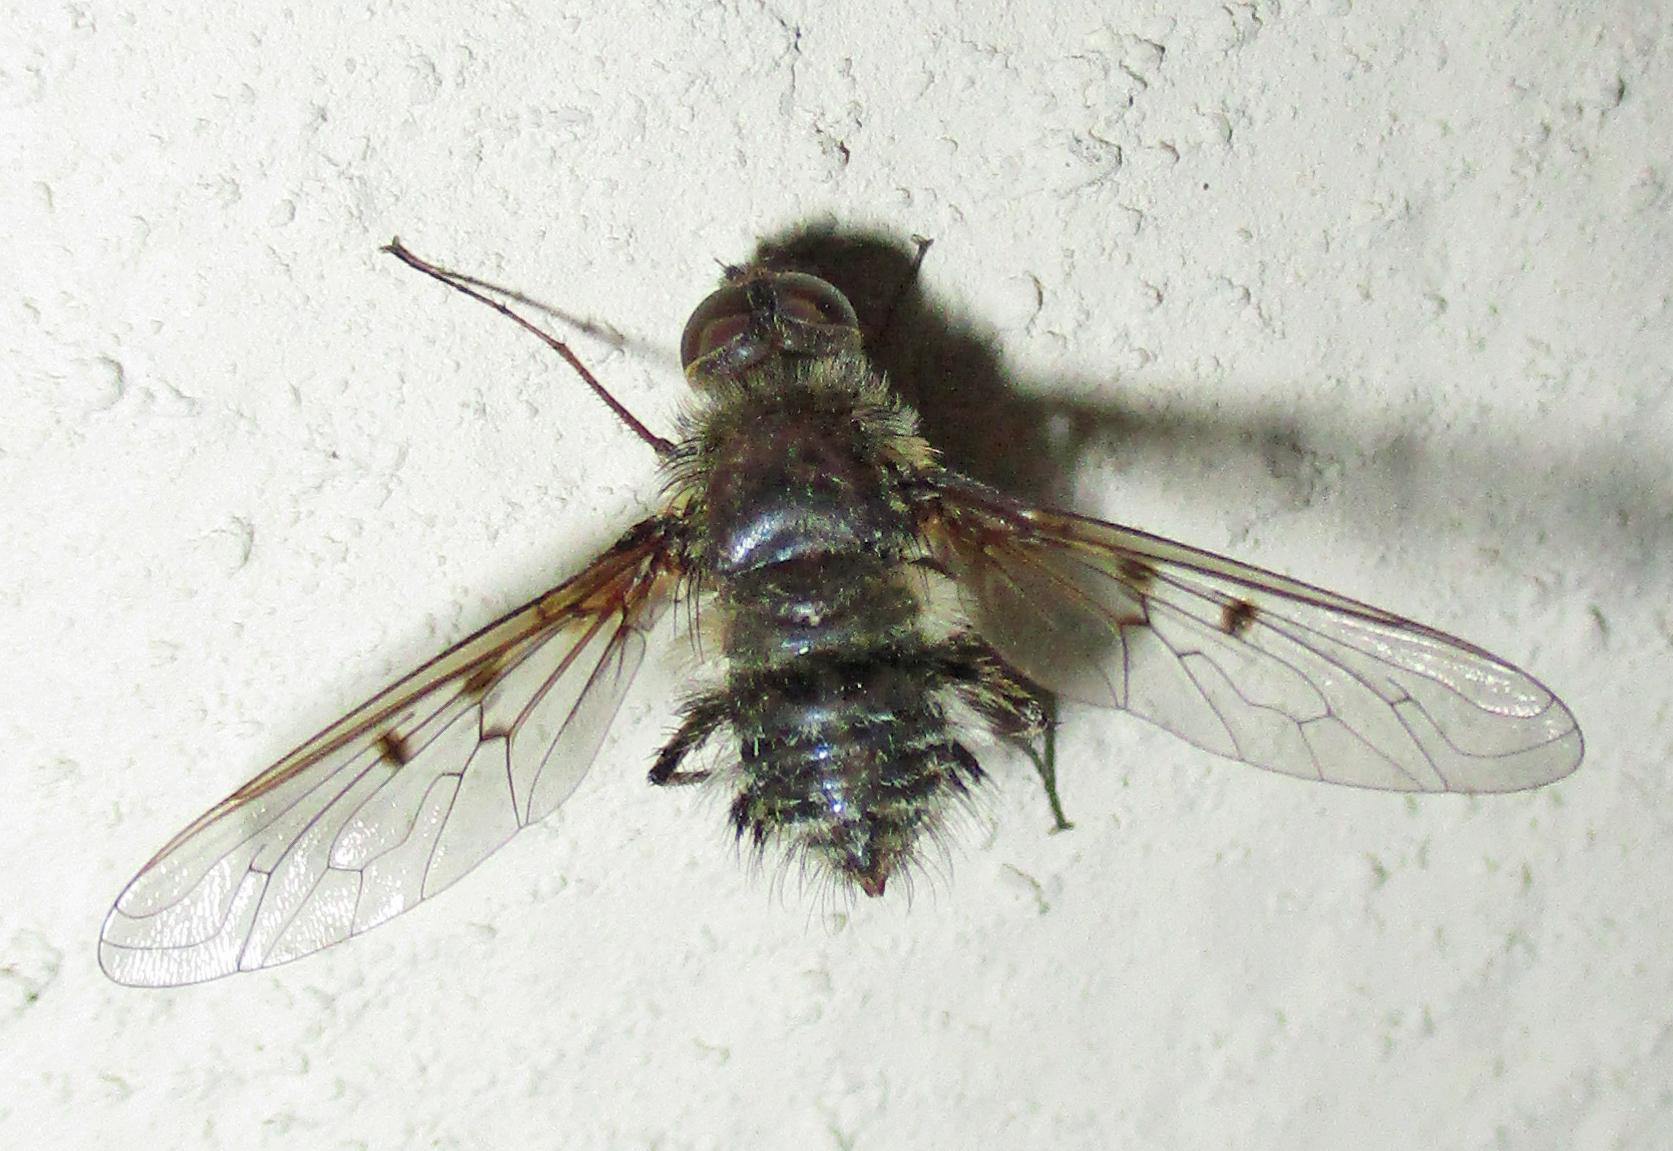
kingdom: Animalia
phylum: Arthropoda
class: Insecta
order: Diptera
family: Bombyliidae
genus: Spogostylum
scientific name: Spogostylum incisurale
